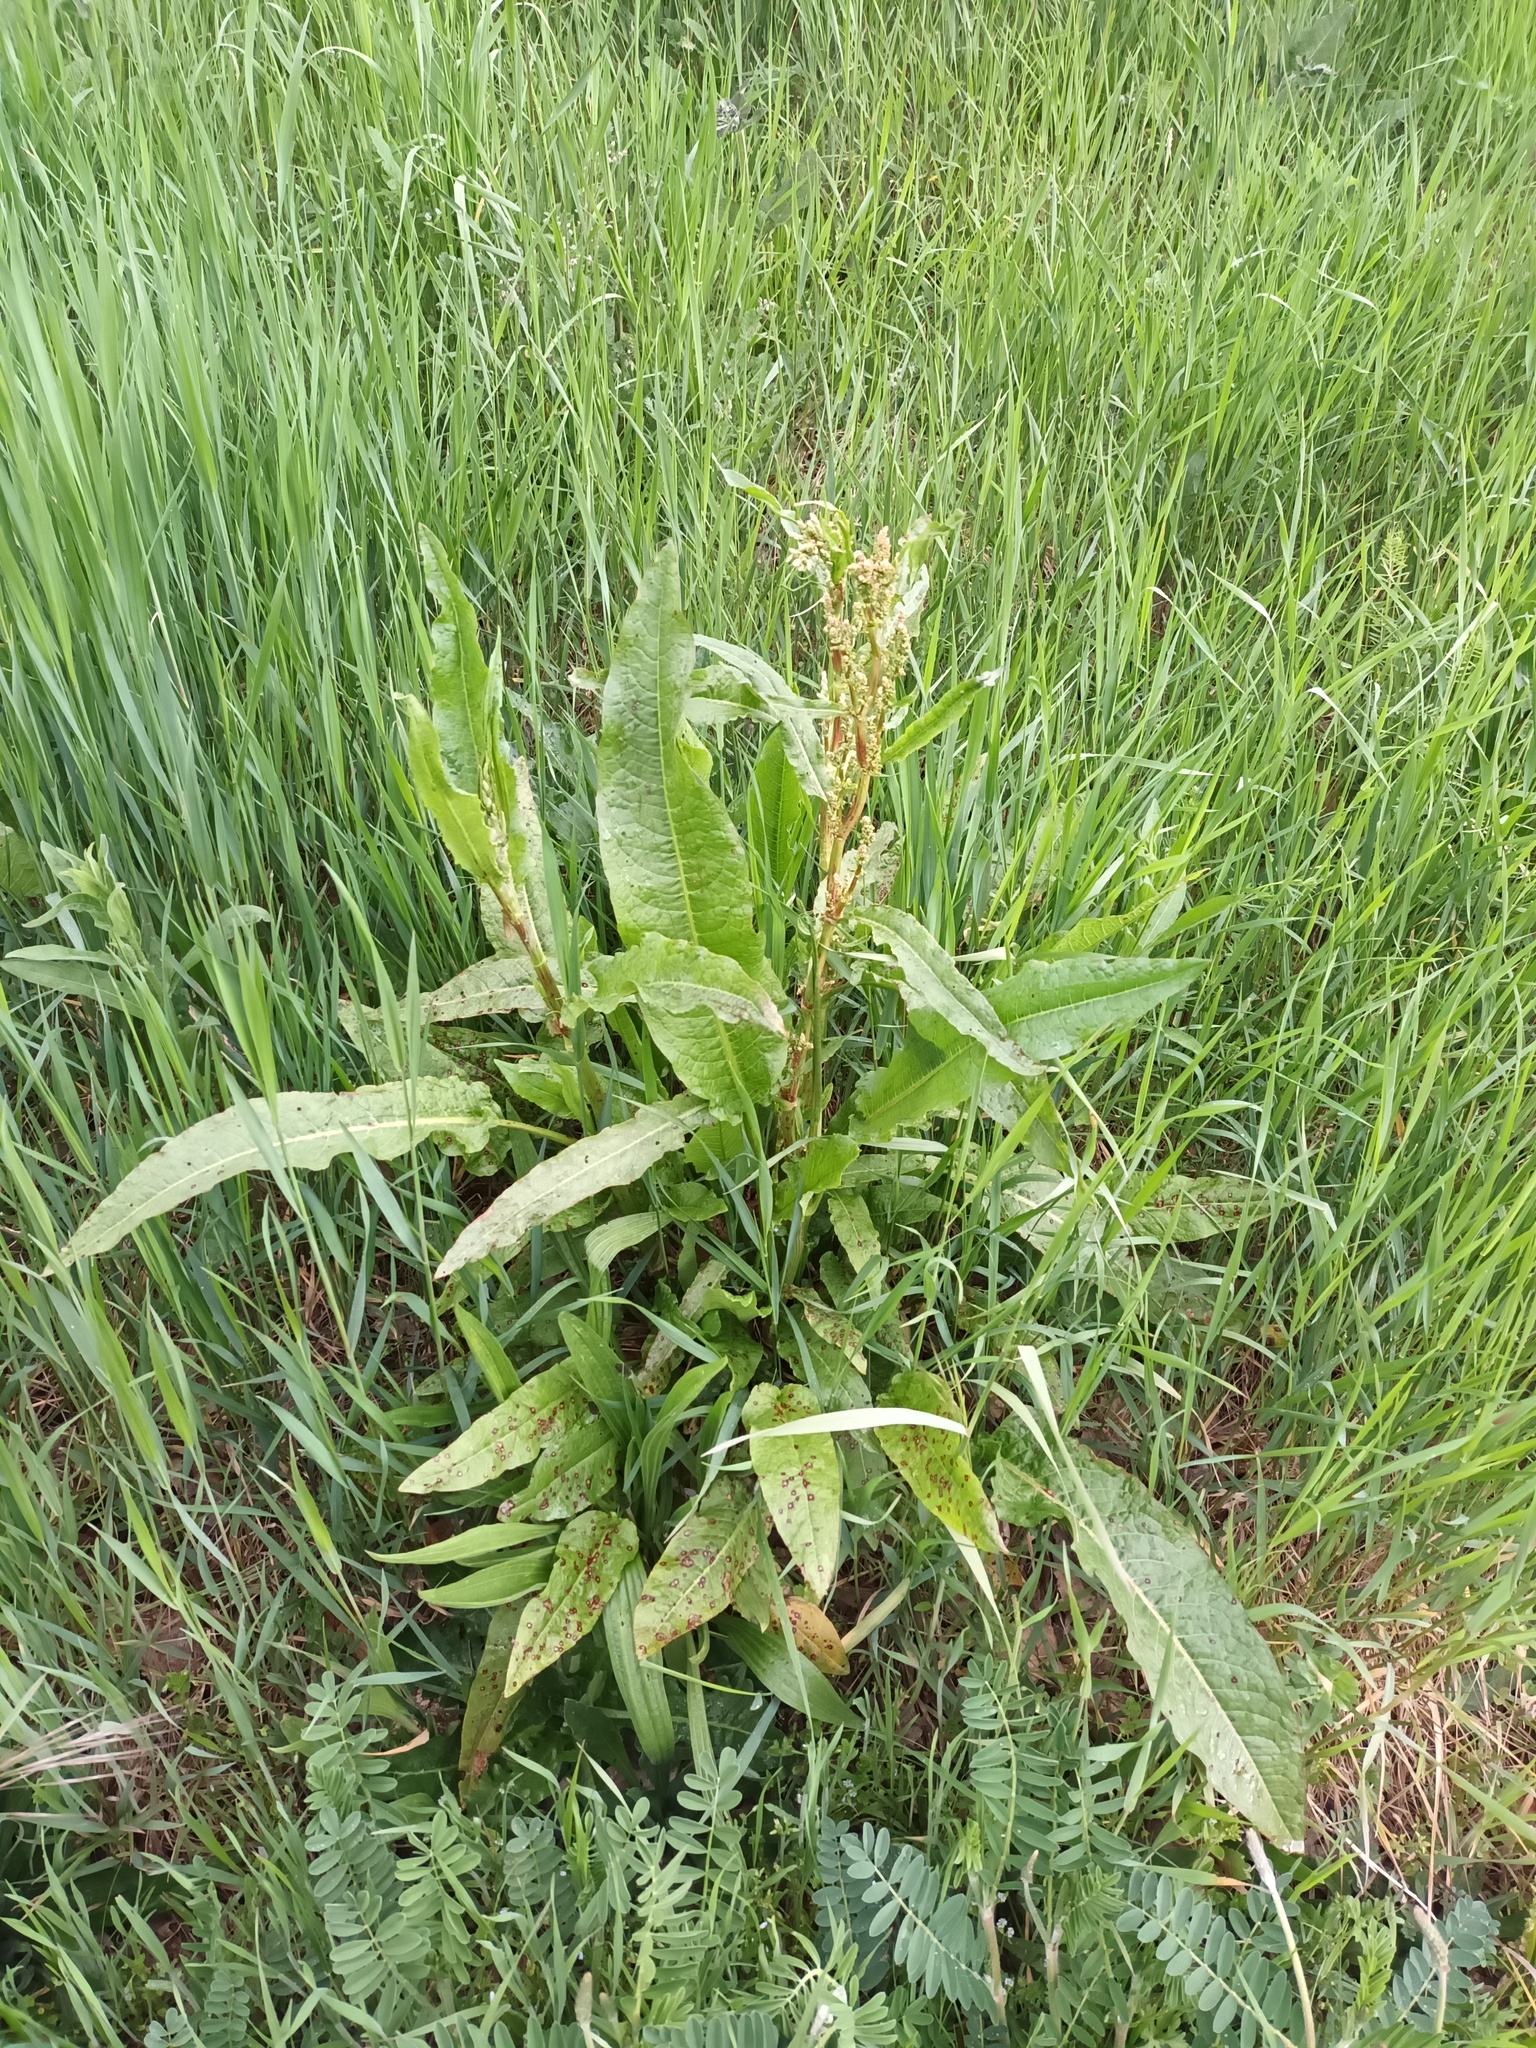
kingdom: Plantae
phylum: Tracheophyta
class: Magnoliopsida
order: Caryophyllales
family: Polygonaceae
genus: Rumex
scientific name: Rumex crispus
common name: Curled dock
